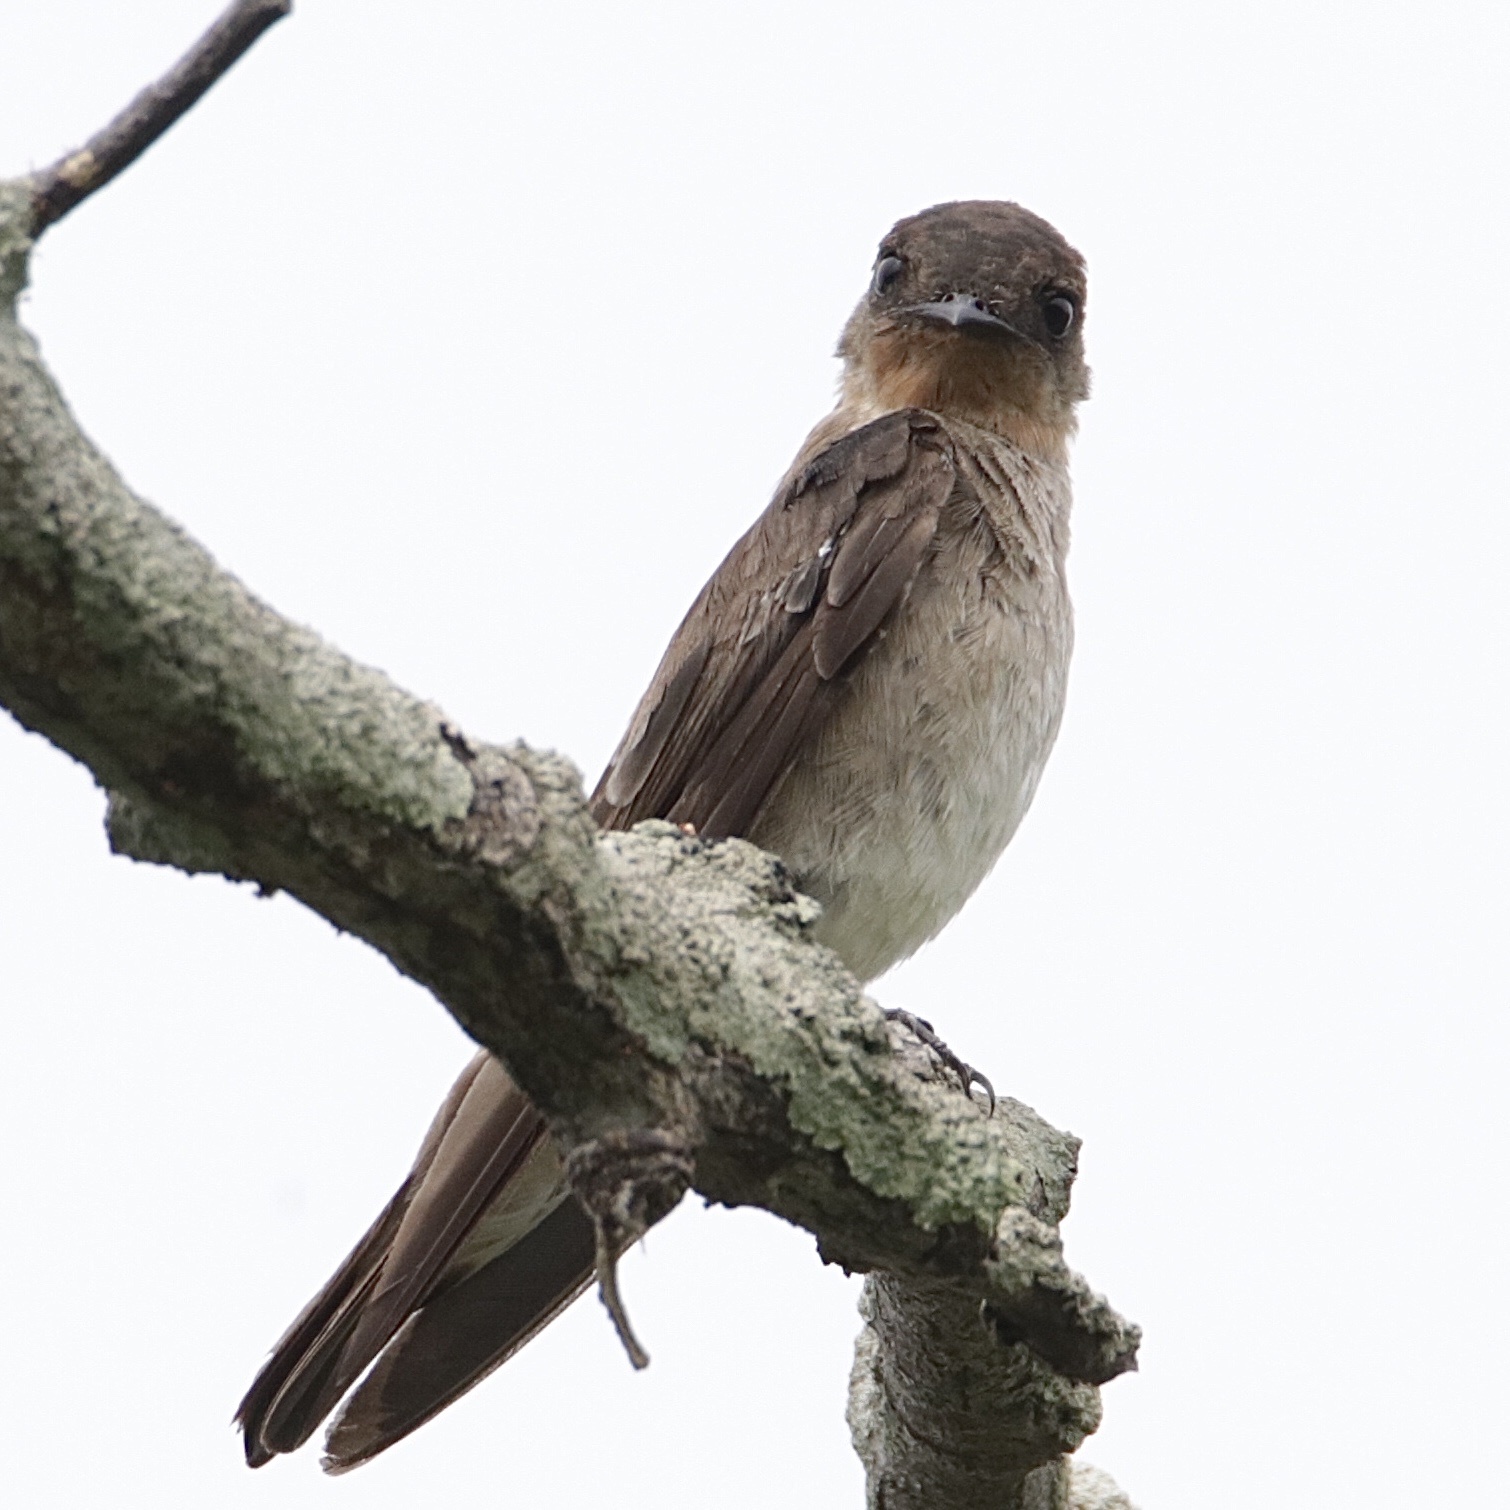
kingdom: Animalia
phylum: Chordata
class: Aves
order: Passeriformes
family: Hirundinidae
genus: Stelgidopteryx
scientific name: Stelgidopteryx ruficollis
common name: Southern rough-winged swallow
